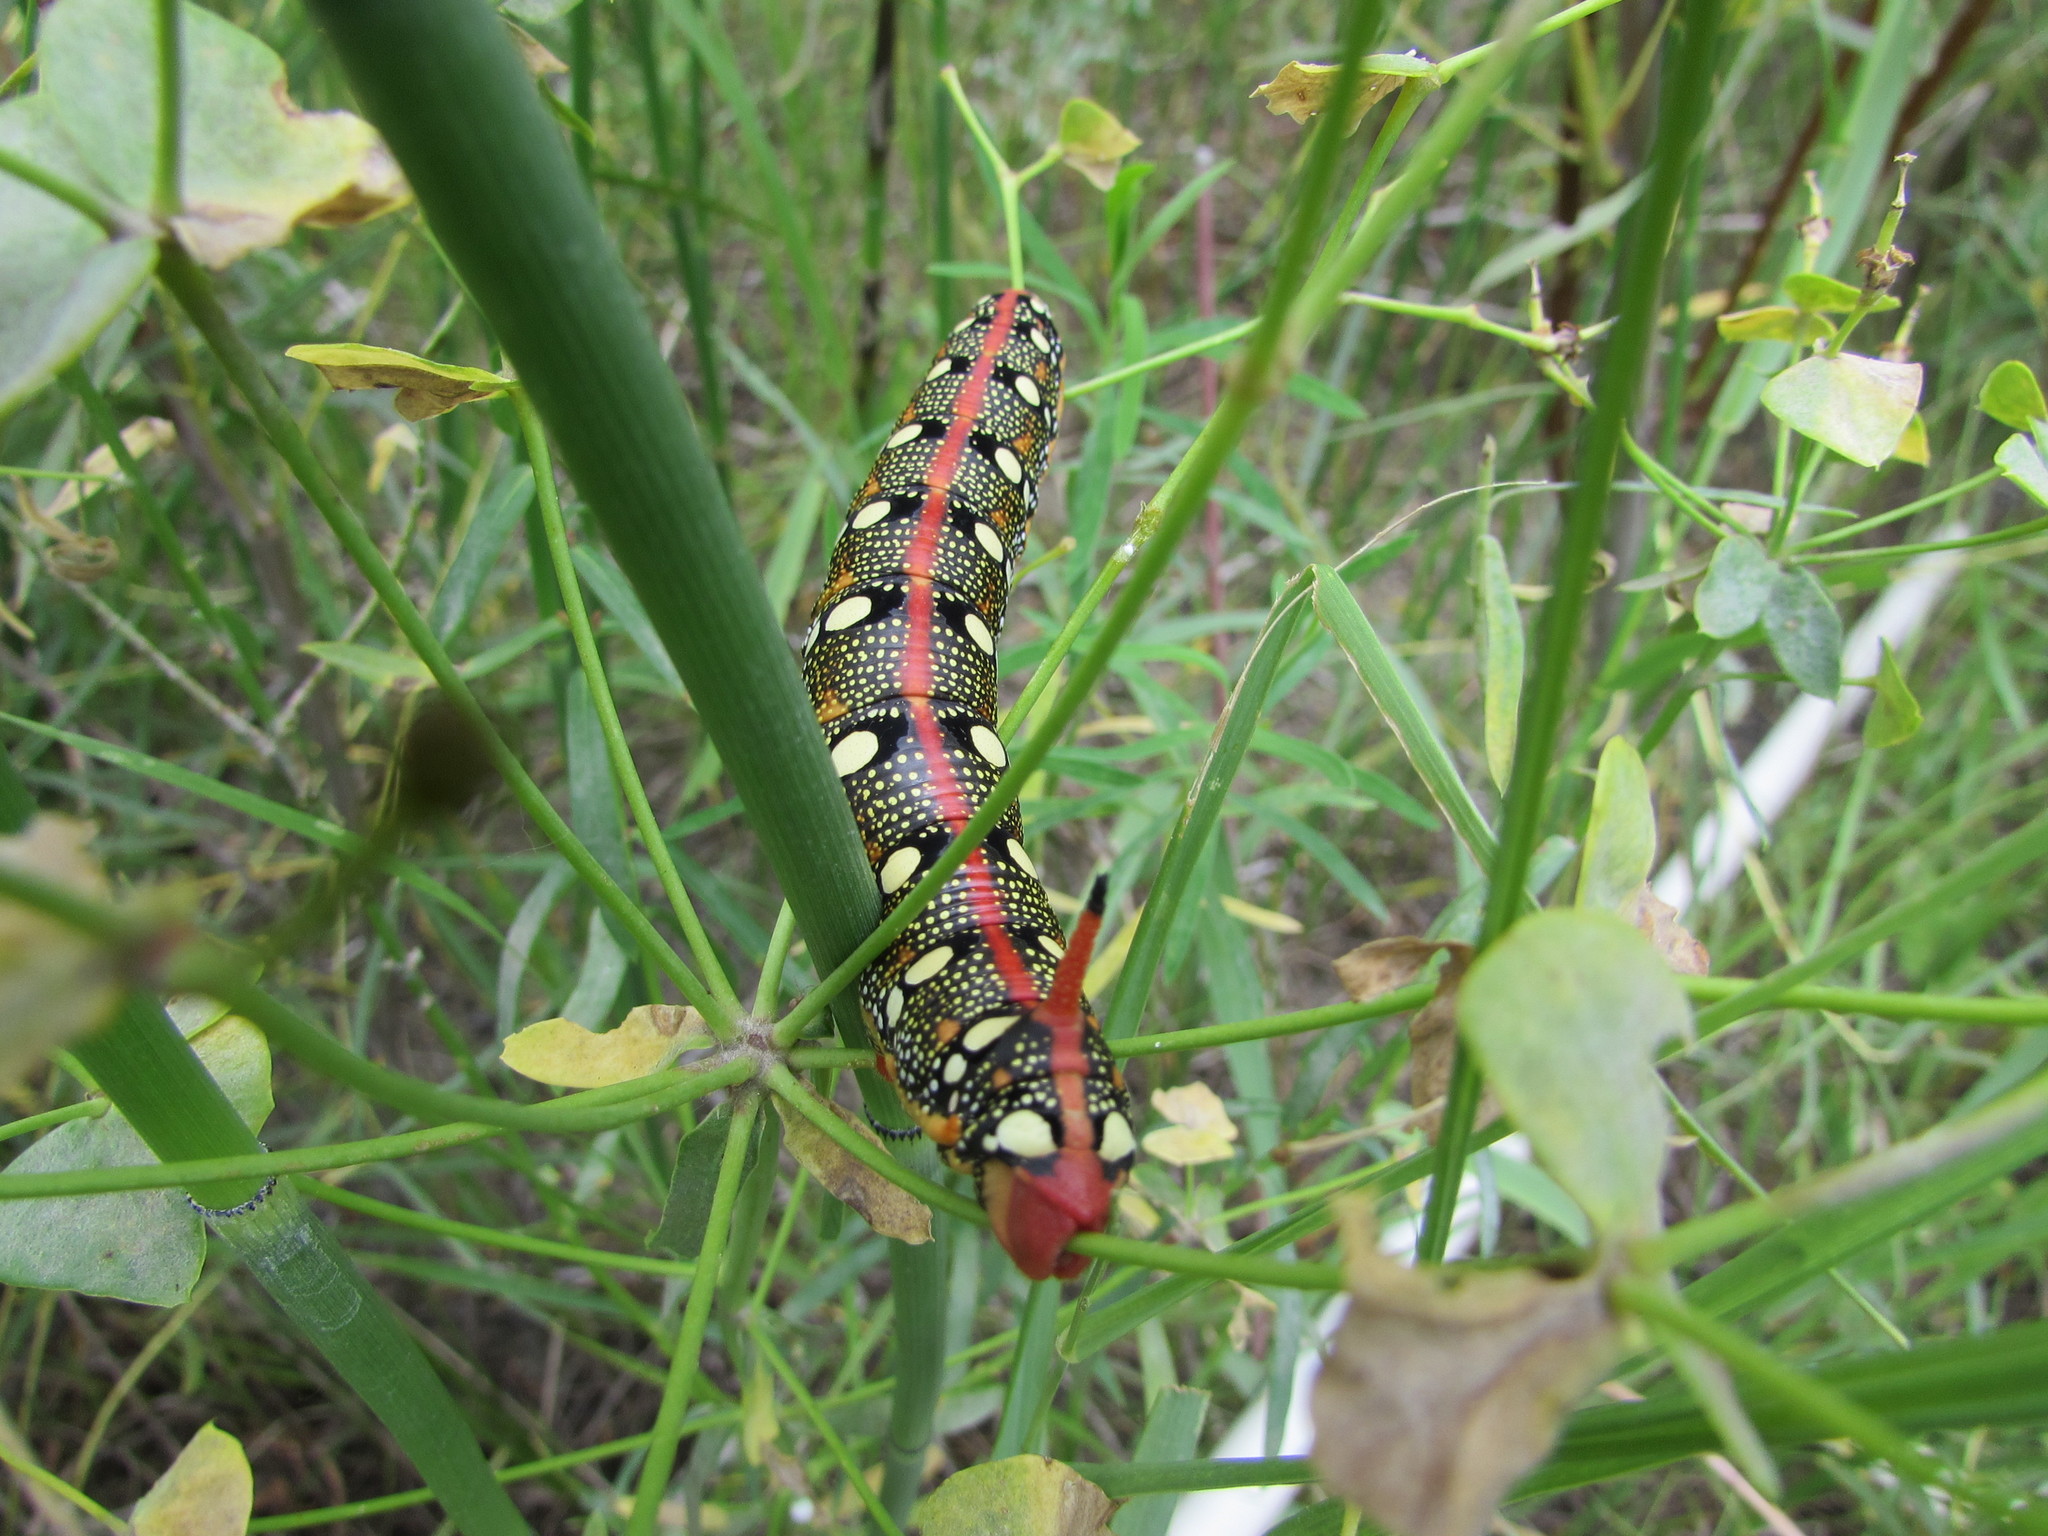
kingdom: Animalia
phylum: Arthropoda
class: Insecta
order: Lepidoptera
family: Sphingidae
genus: Hyles
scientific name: Hyles euphorbiae
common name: Spurge hawk-moth
